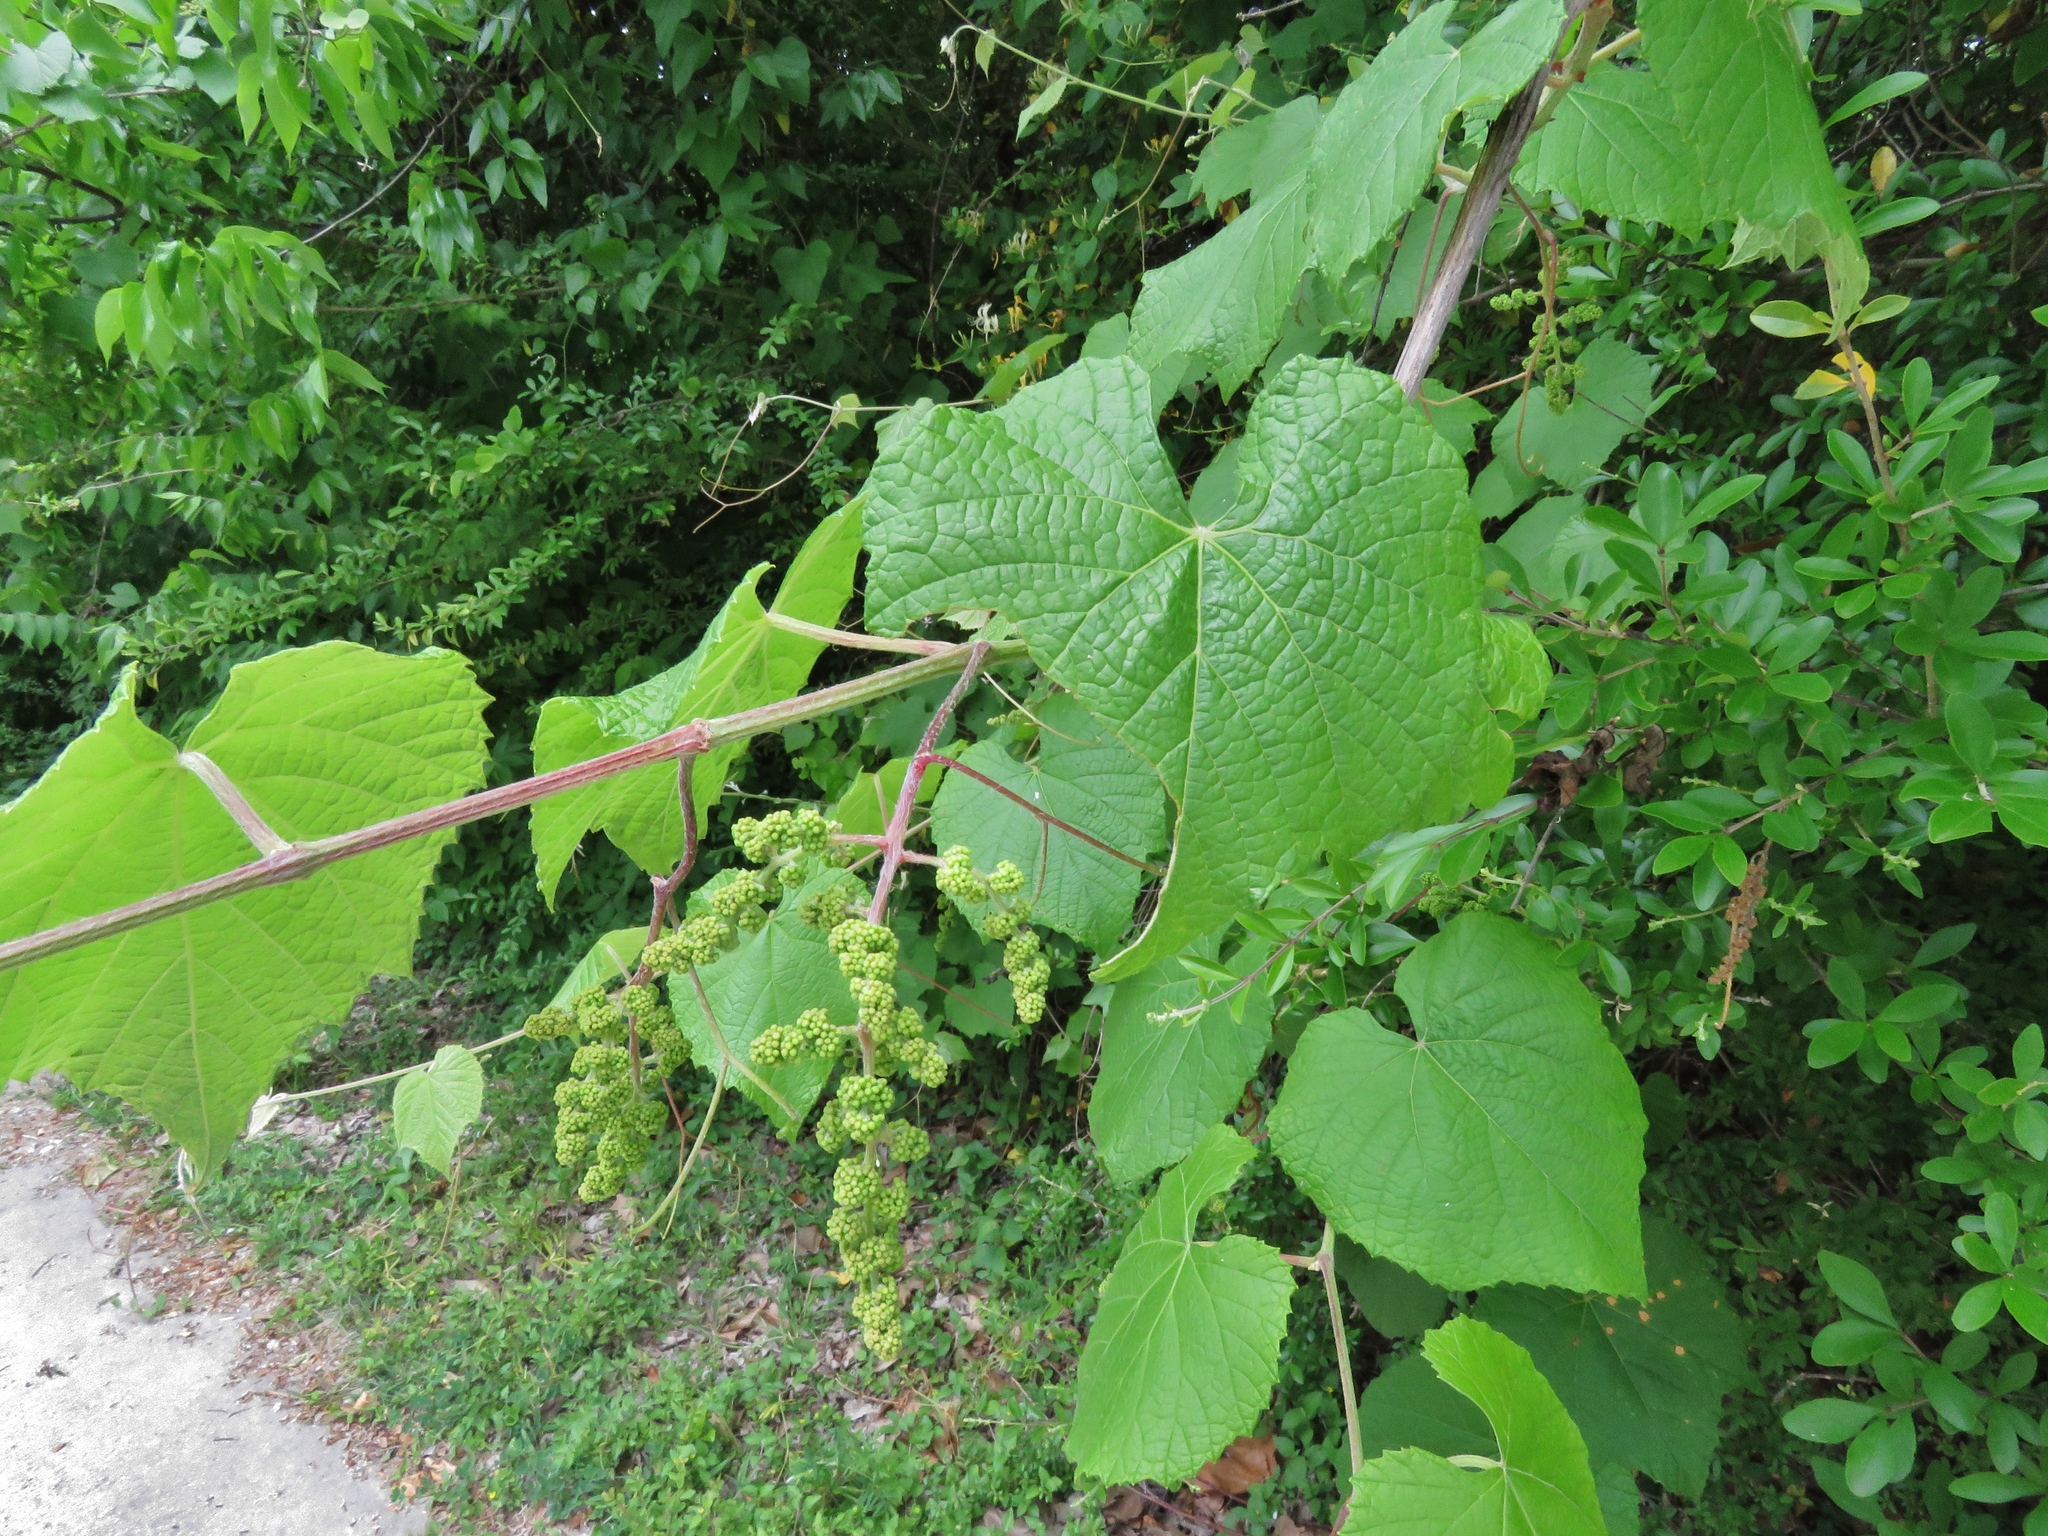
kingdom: Plantae
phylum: Tracheophyta
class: Magnoliopsida
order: Vitales
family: Vitaceae
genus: Vitis
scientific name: Vitis mustangensis
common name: Mustang grape
